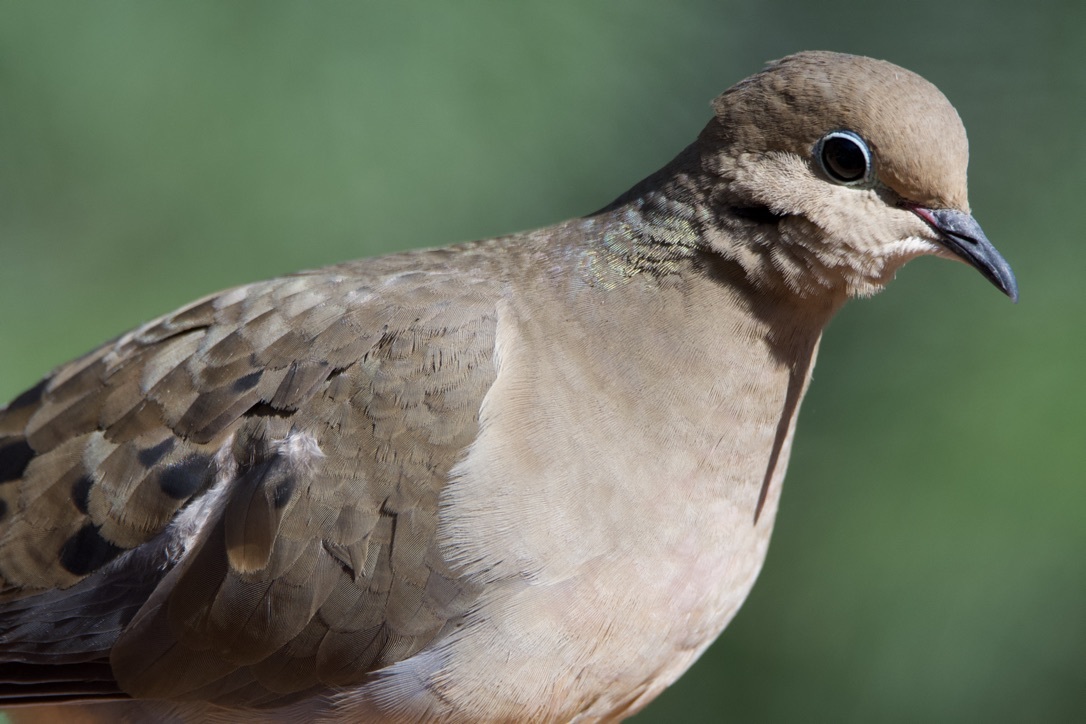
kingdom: Animalia
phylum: Chordata
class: Aves
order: Columbiformes
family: Columbidae
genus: Zenaida
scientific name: Zenaida macroura
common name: Mourning dove
